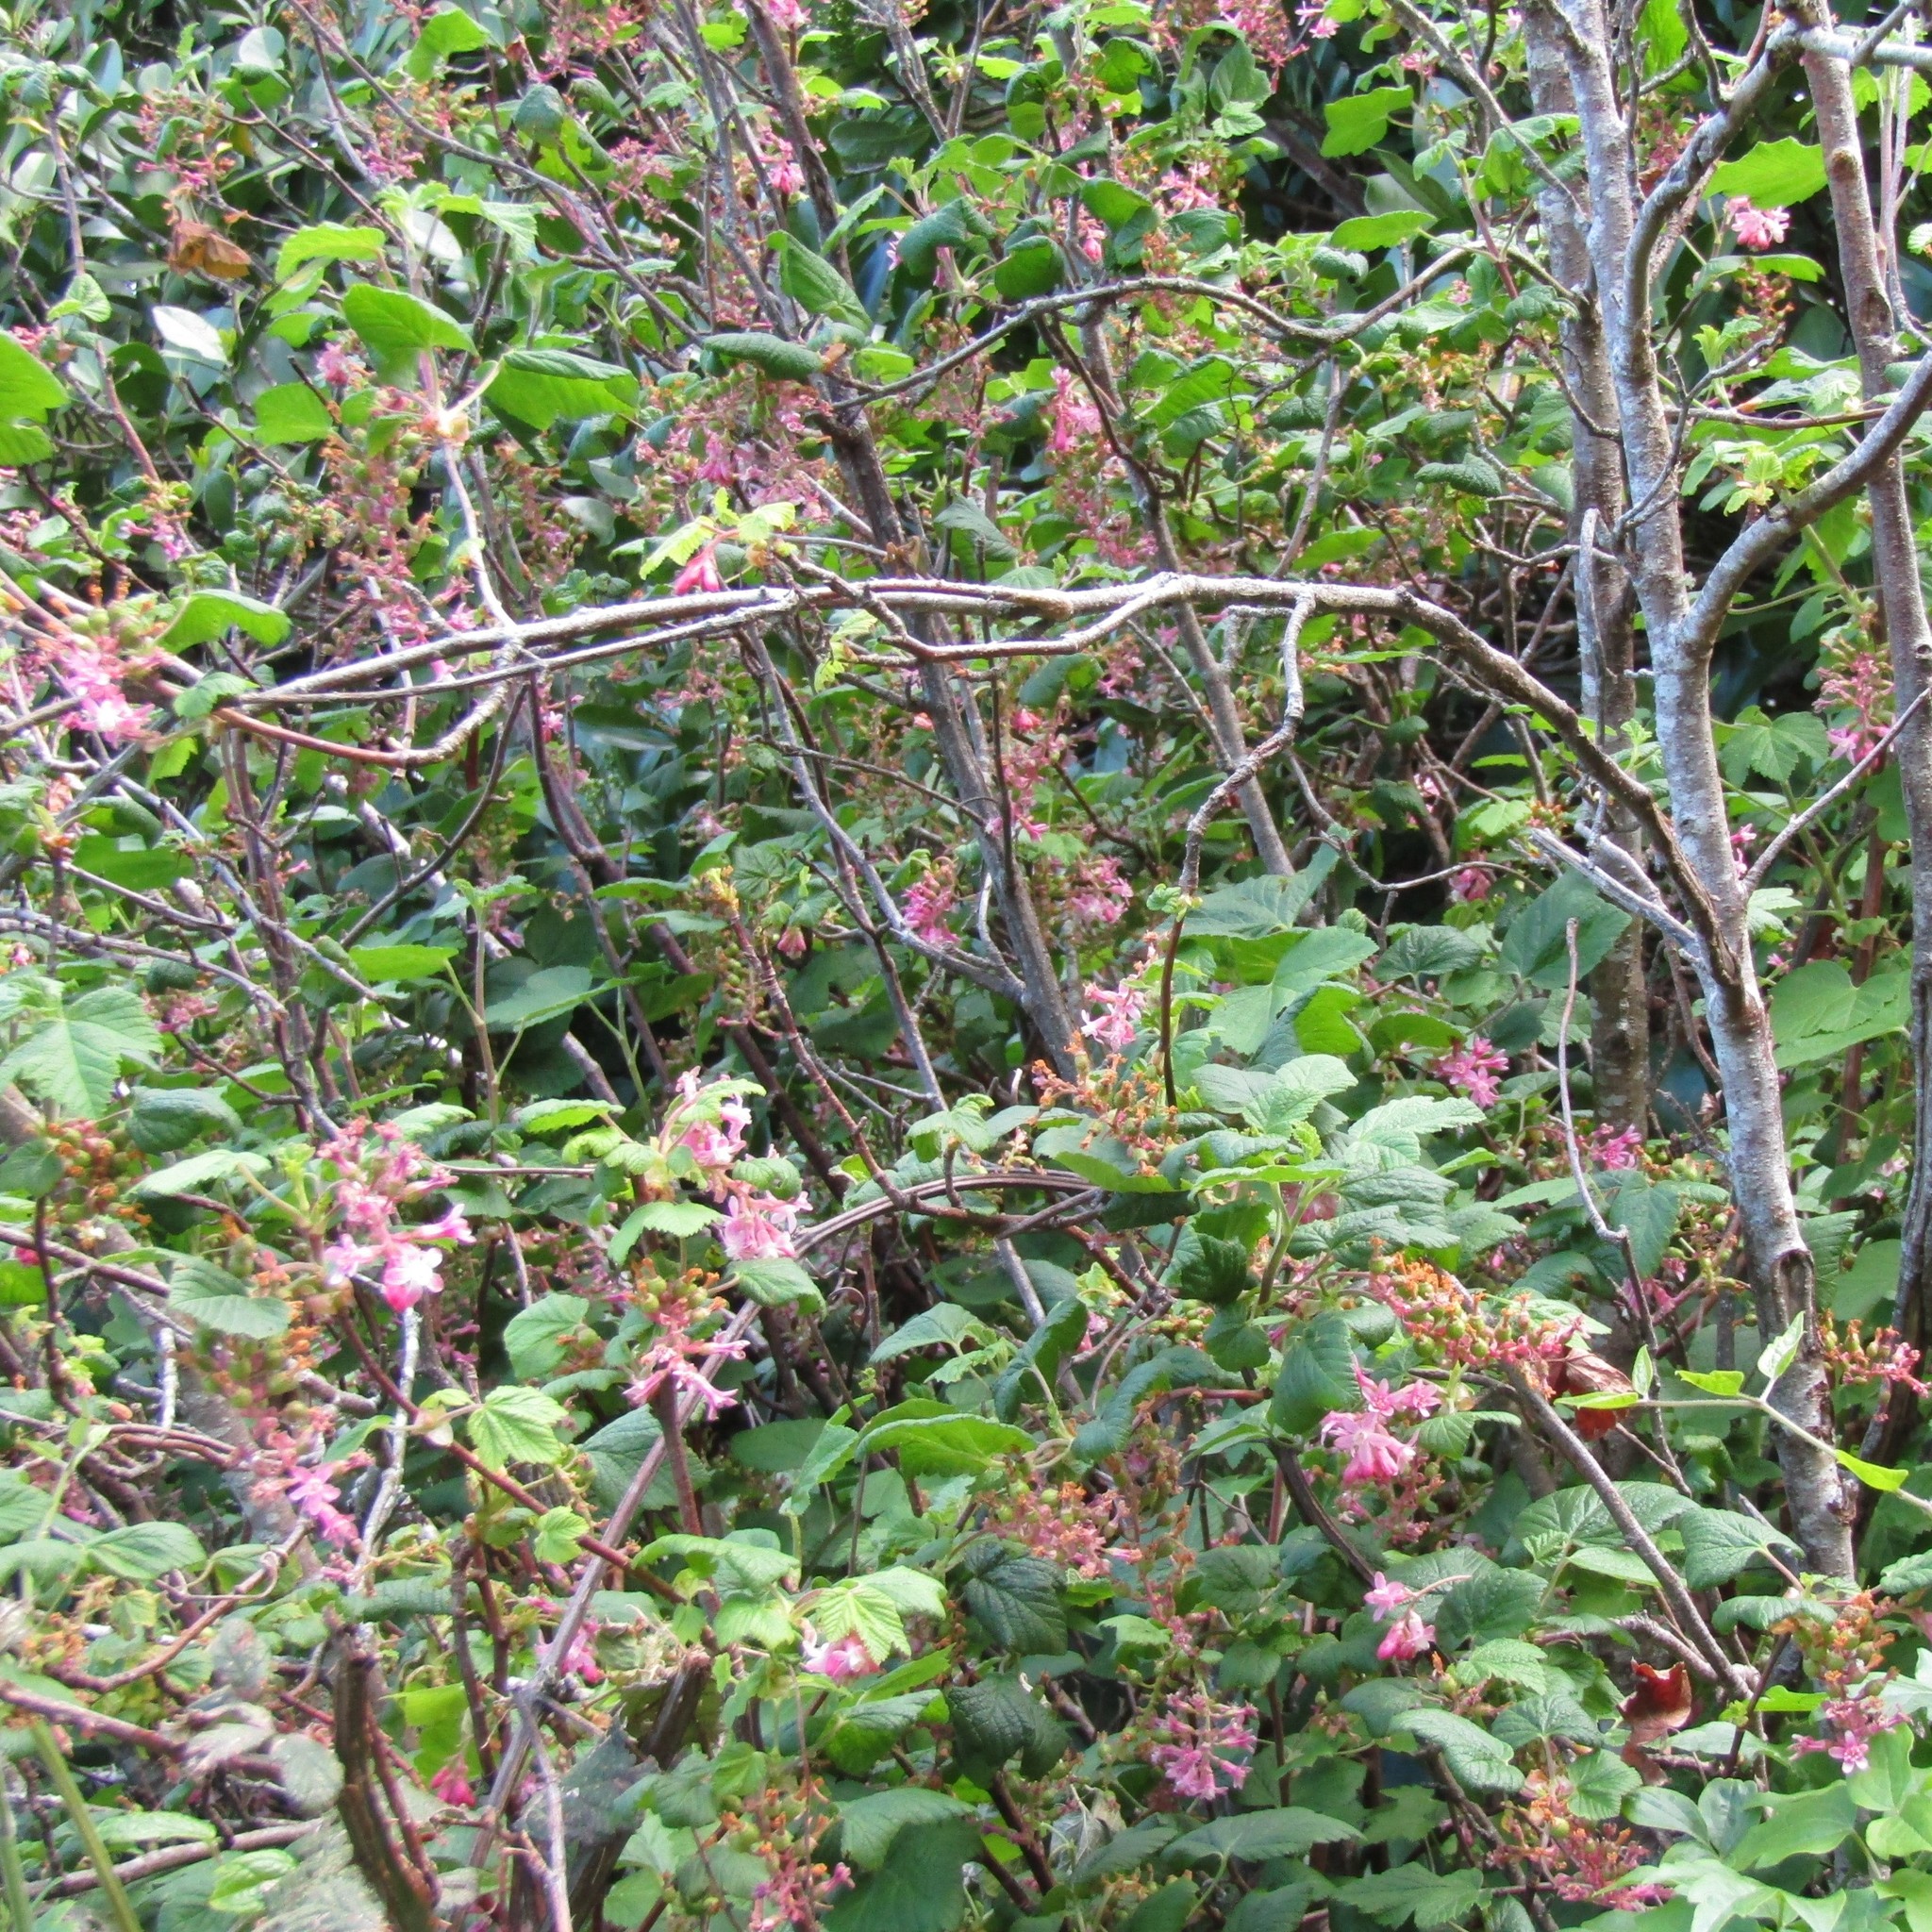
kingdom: Plantae
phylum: Tracheophyta
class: Magnoliopsida
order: Saxifragales
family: Grossulariaceae
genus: Ribes
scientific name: Ribes sanguineum
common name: Flowering currant
